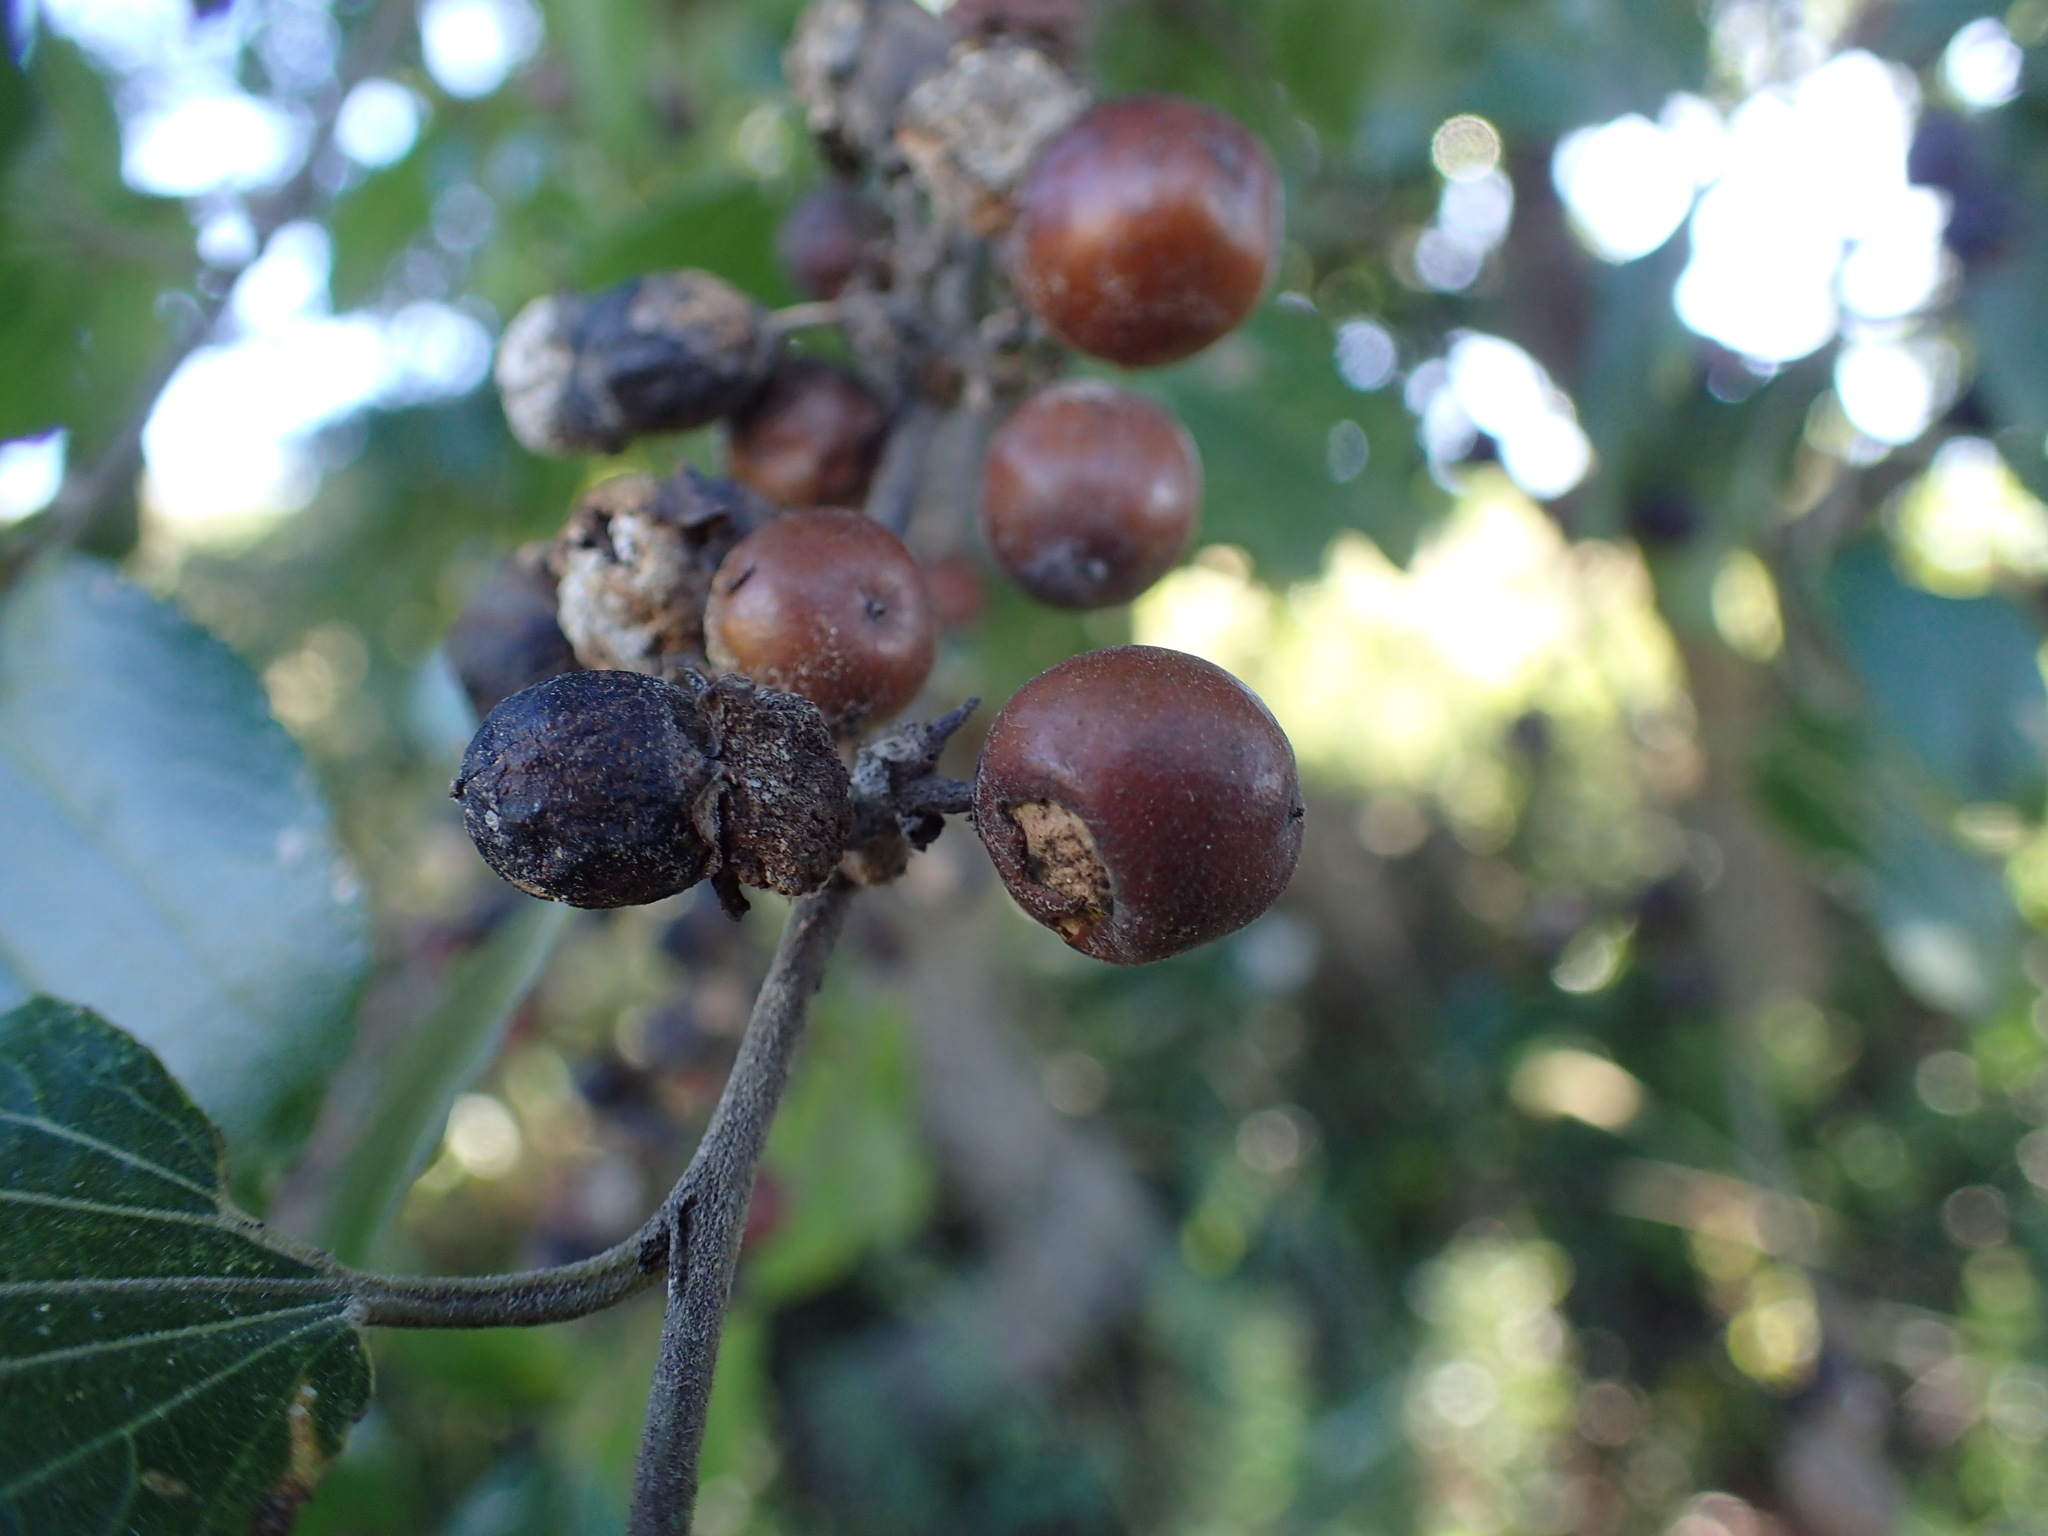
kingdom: Plantae
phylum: Tracheophyta
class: Magnoliopsida
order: Rosales
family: Rhamnaceae
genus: Ziziphus
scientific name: Ziziphus mucronata
